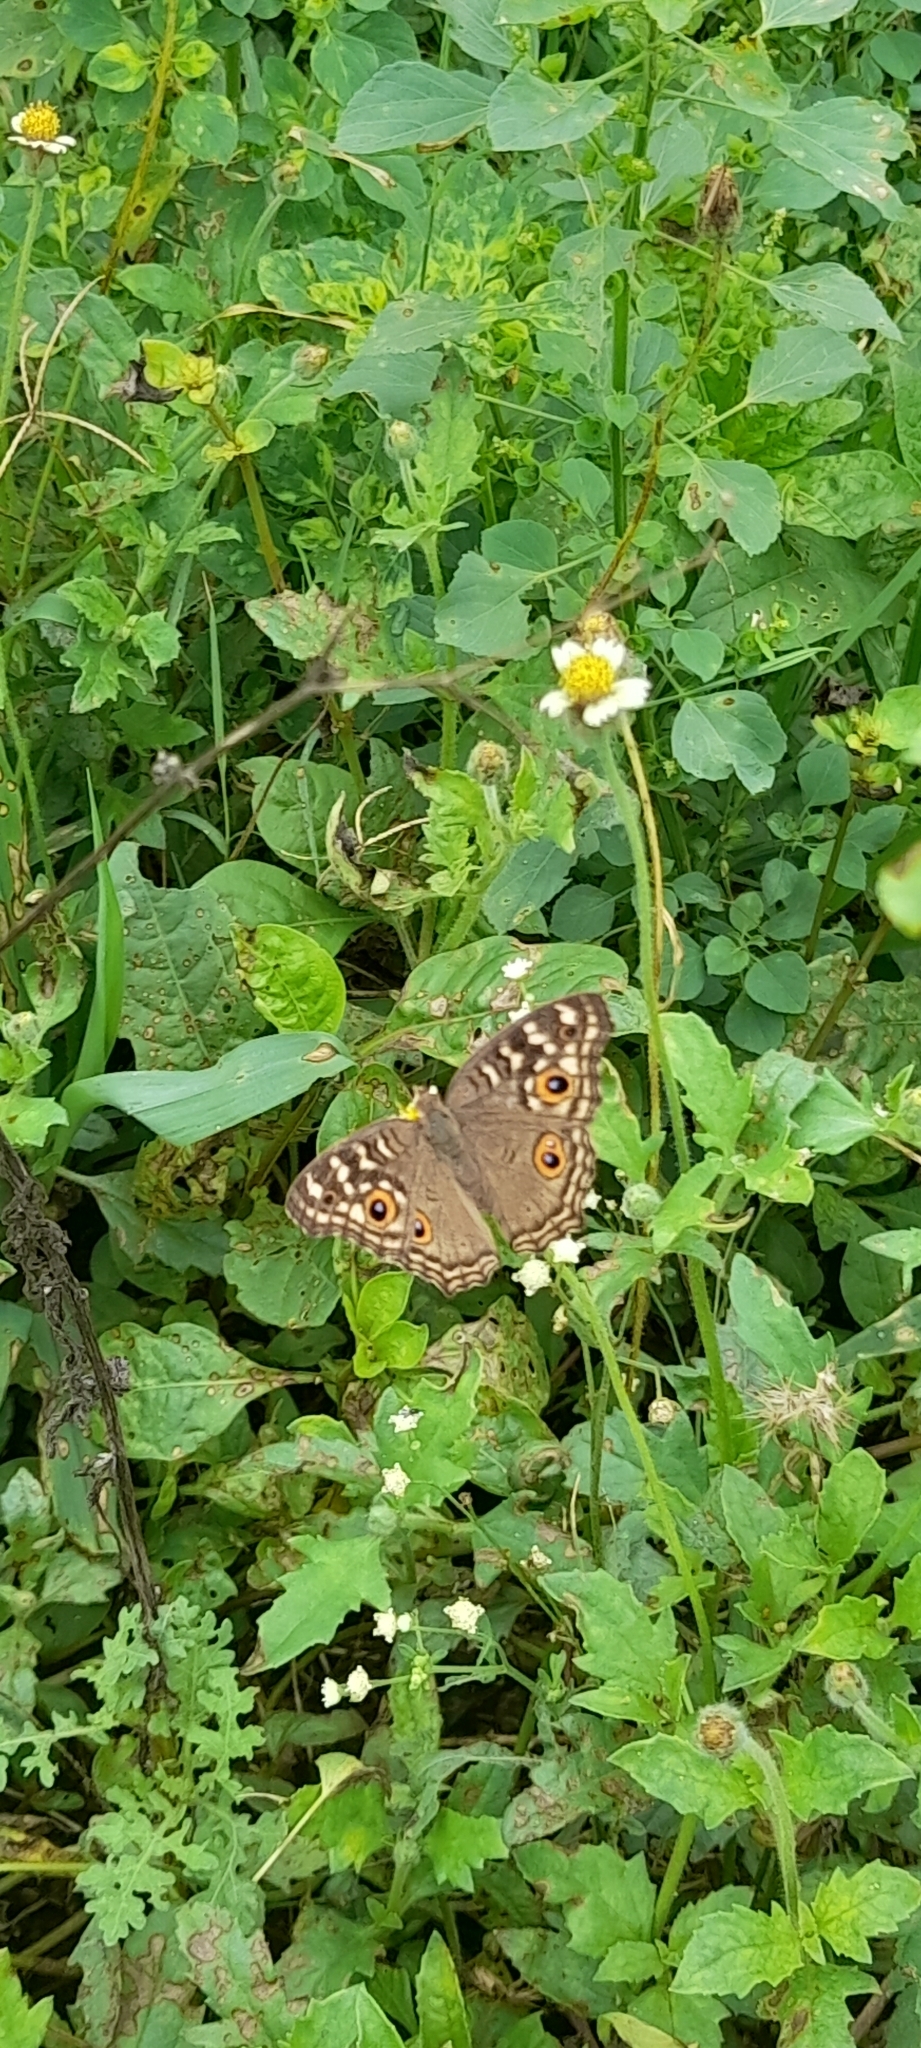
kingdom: Animalia
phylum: Arthropoda
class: Insecta
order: Lepidoptera
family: Nymphalidae
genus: Junonia
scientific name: Junonia lemonias
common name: Lemon pansy
